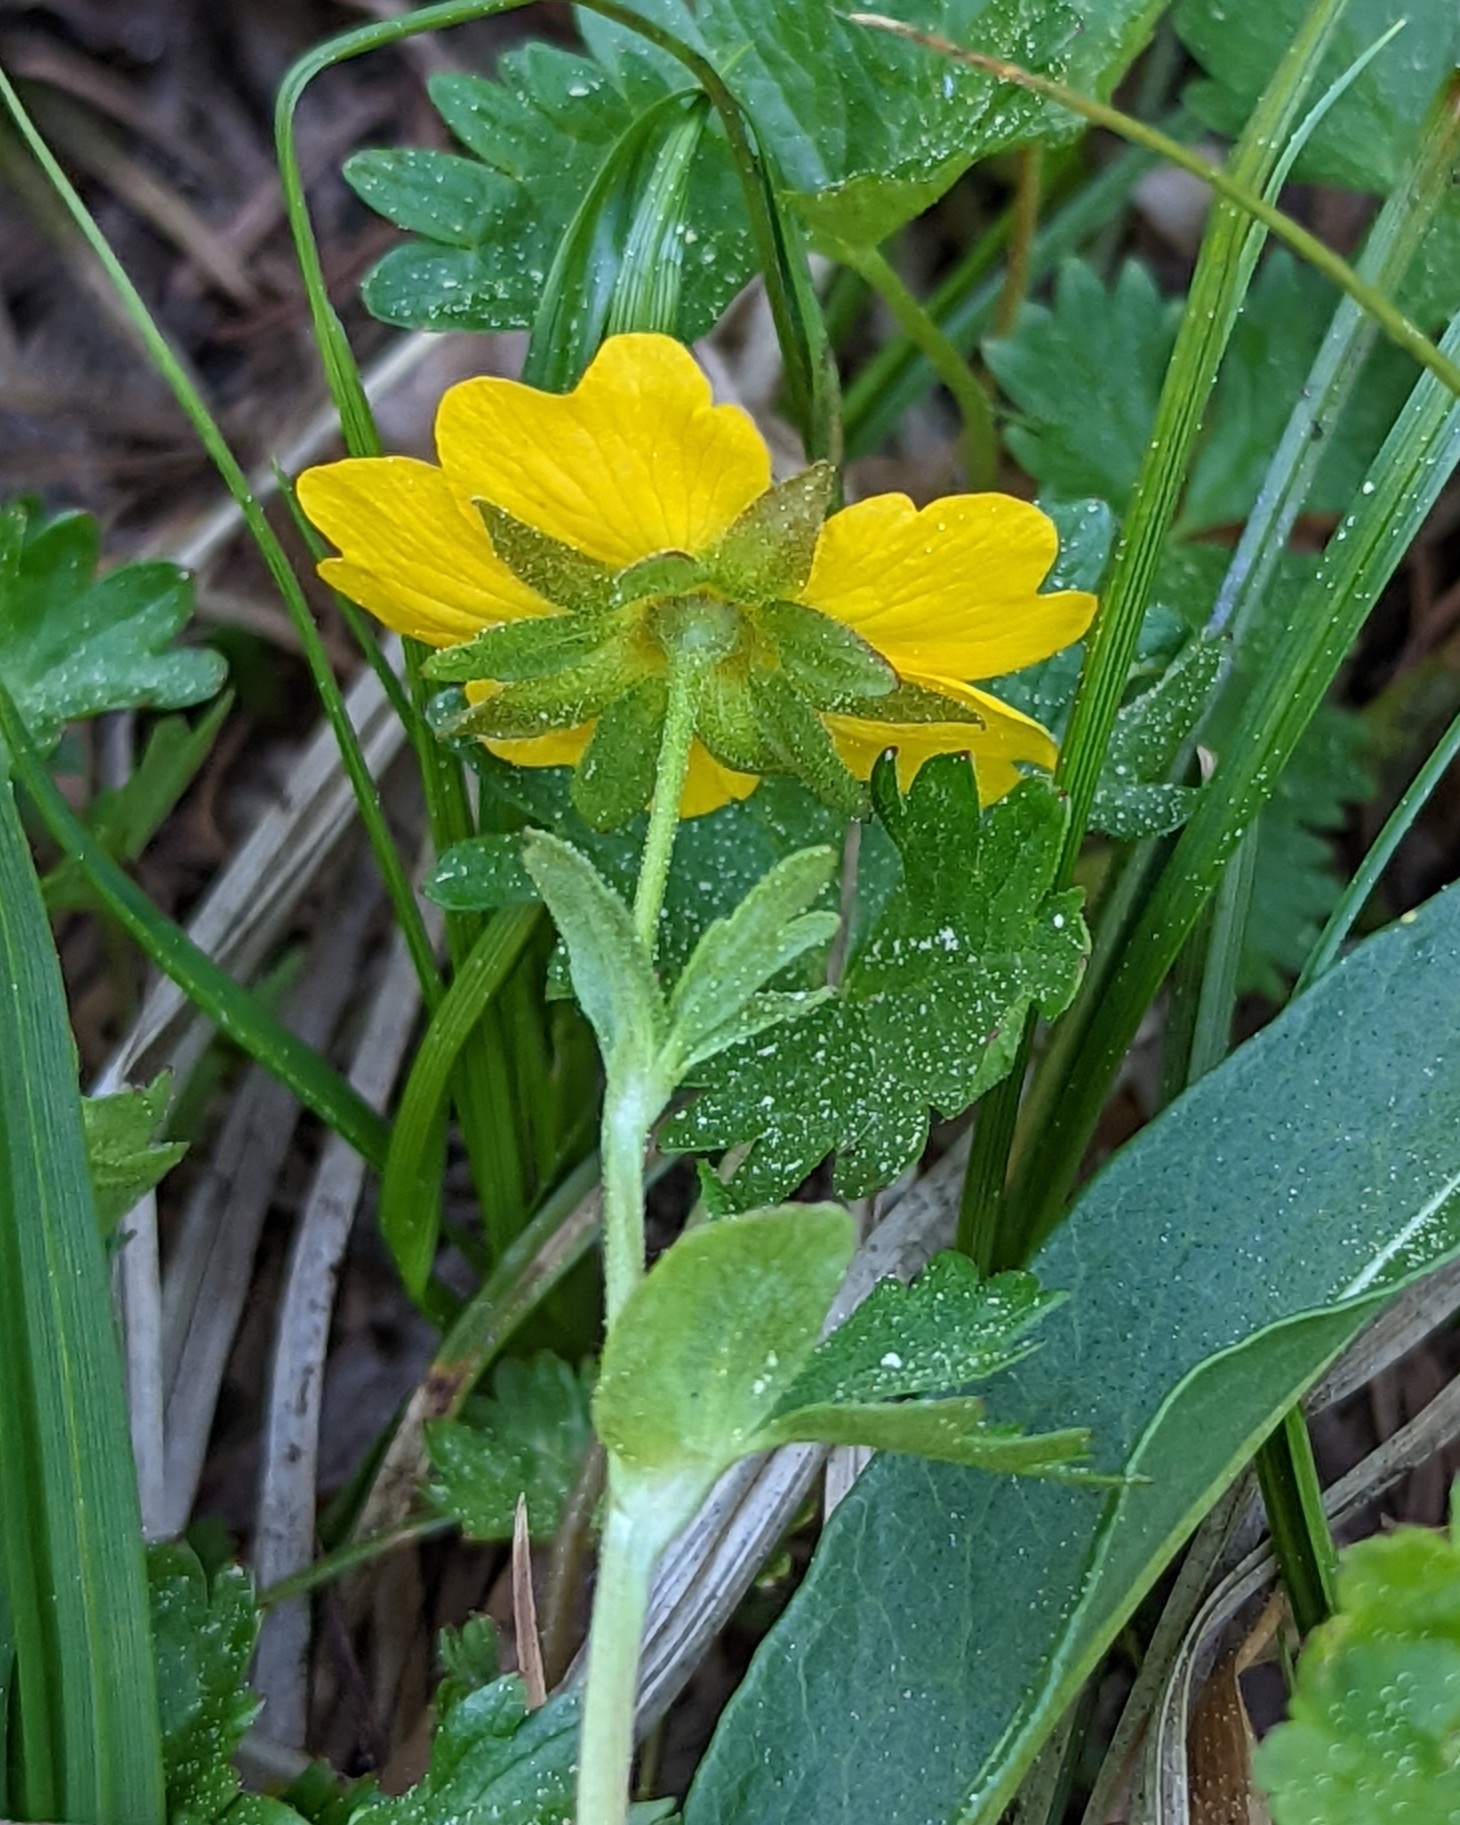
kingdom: Plantae
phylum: Tracheophyta
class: Magnoliopsida
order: Rosales
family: Rosaceae
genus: Potentilla
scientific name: Potentilla flabellifolia
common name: Mount rainier cinquefoil
